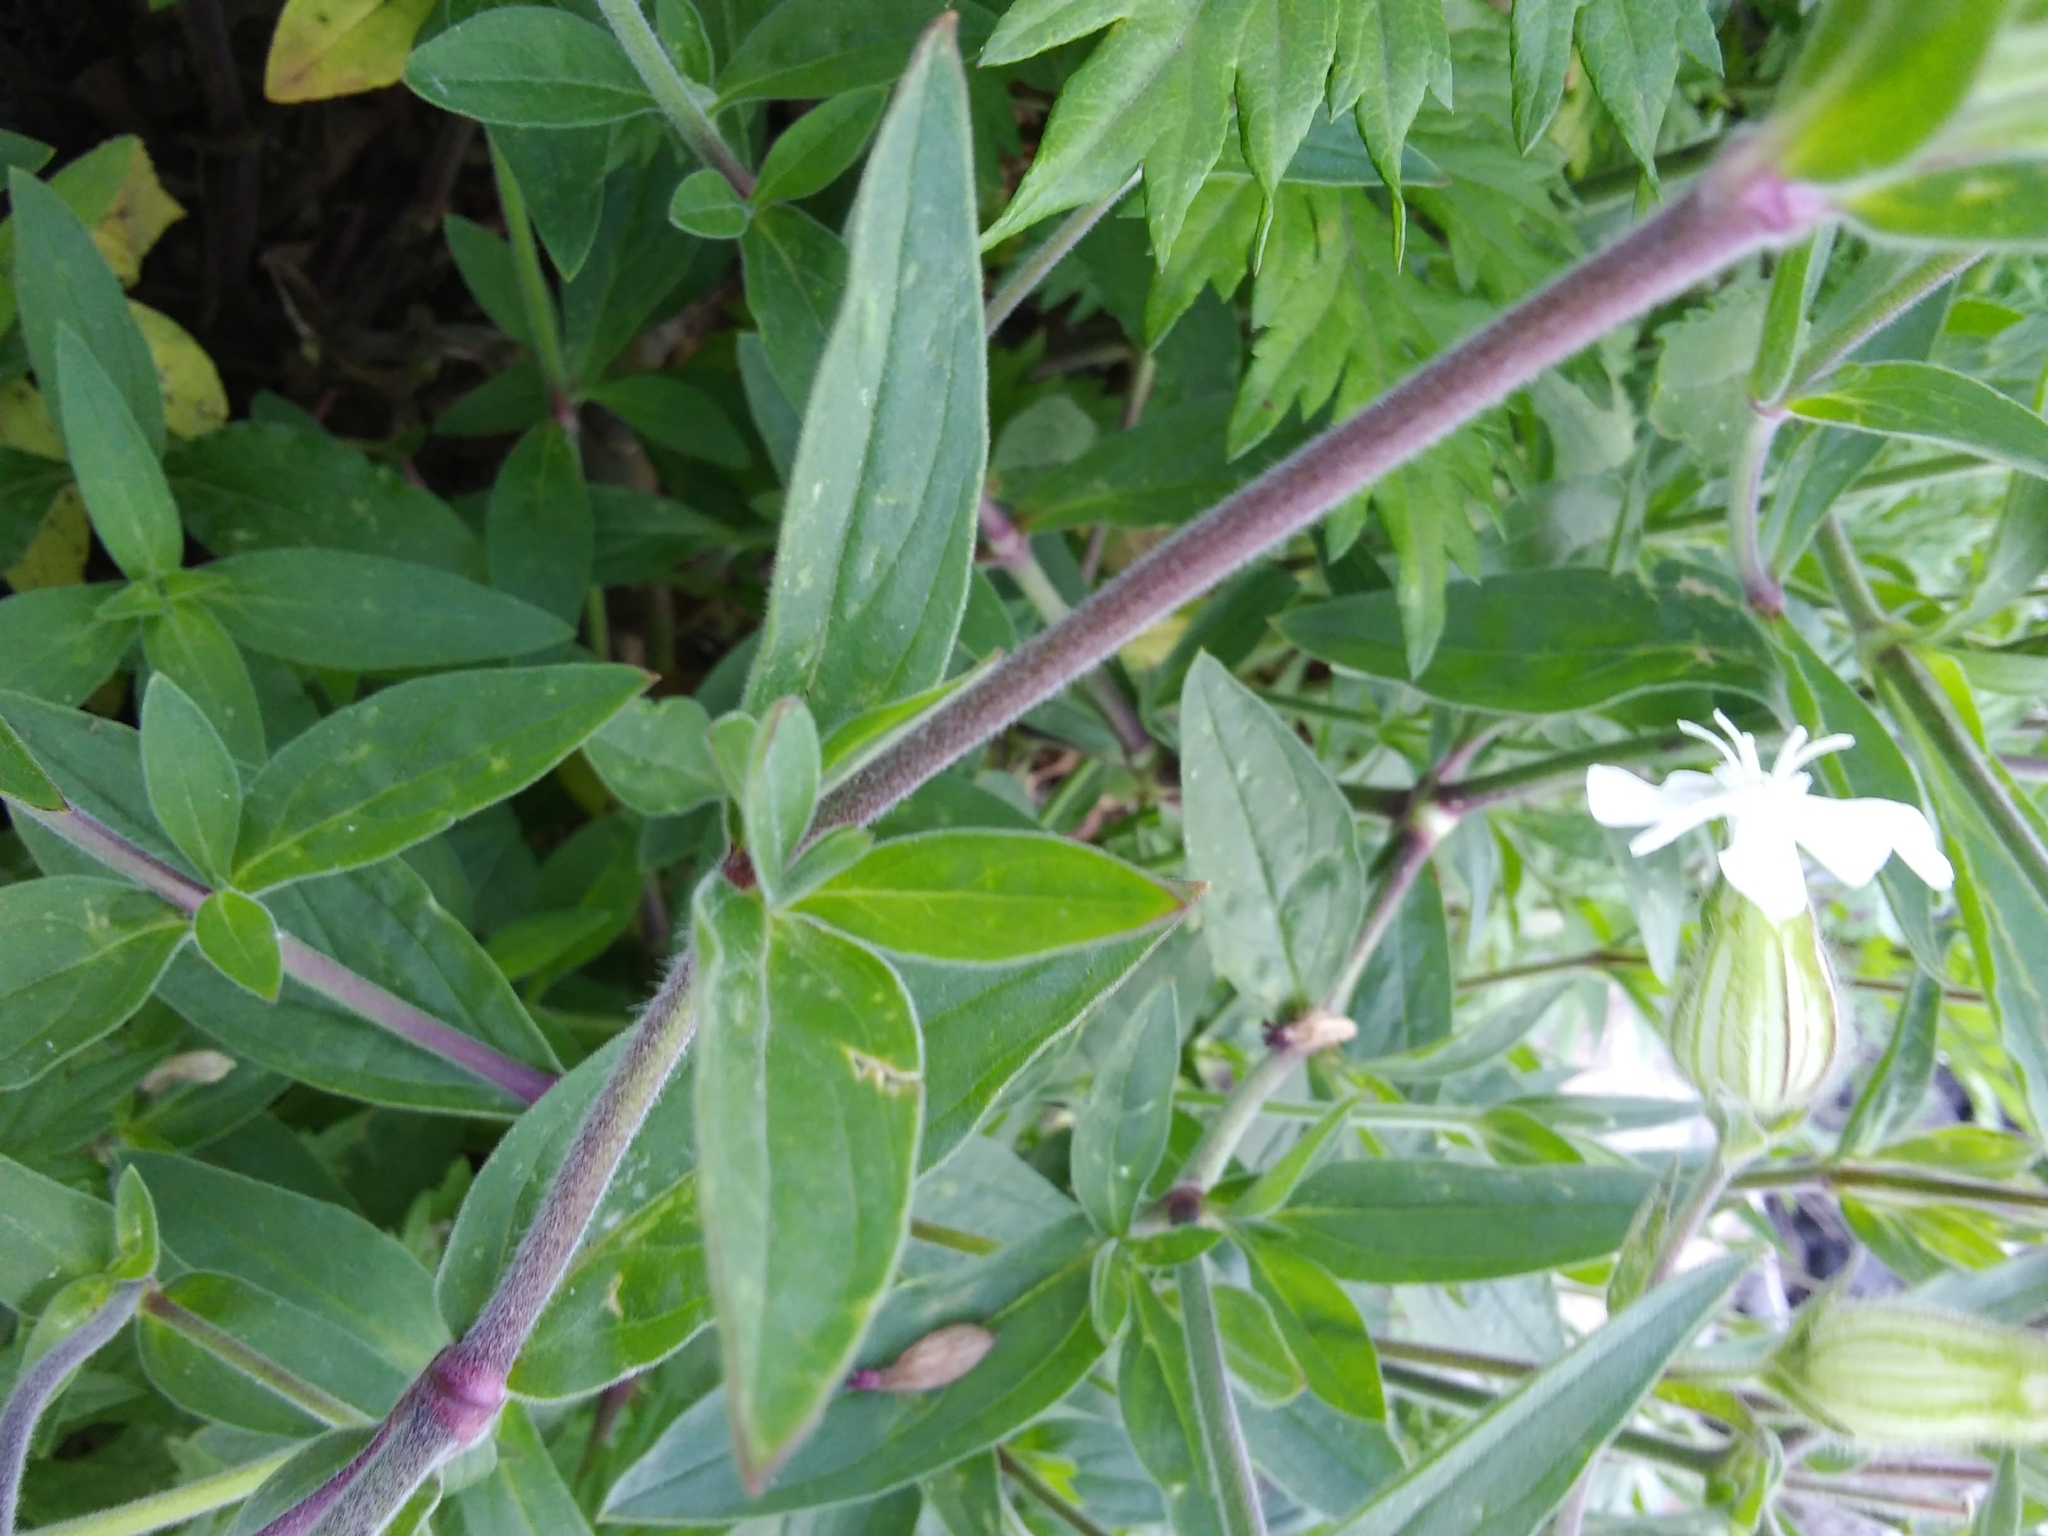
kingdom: Plantae
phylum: Tracheophyta
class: Magnoliopsida
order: Caryophyllales
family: Caryophyllaceae
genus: Silene
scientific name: Silene hampeana
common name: Catchfly
